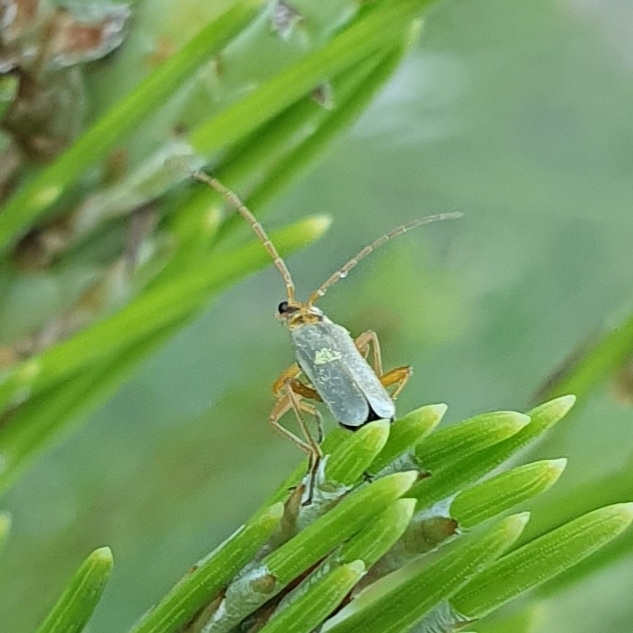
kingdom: Animalia
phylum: Arthropoda
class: Insecta
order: Coleoptera
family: Cantharidae
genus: Rhagonycha
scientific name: Rhagonycha herbea
